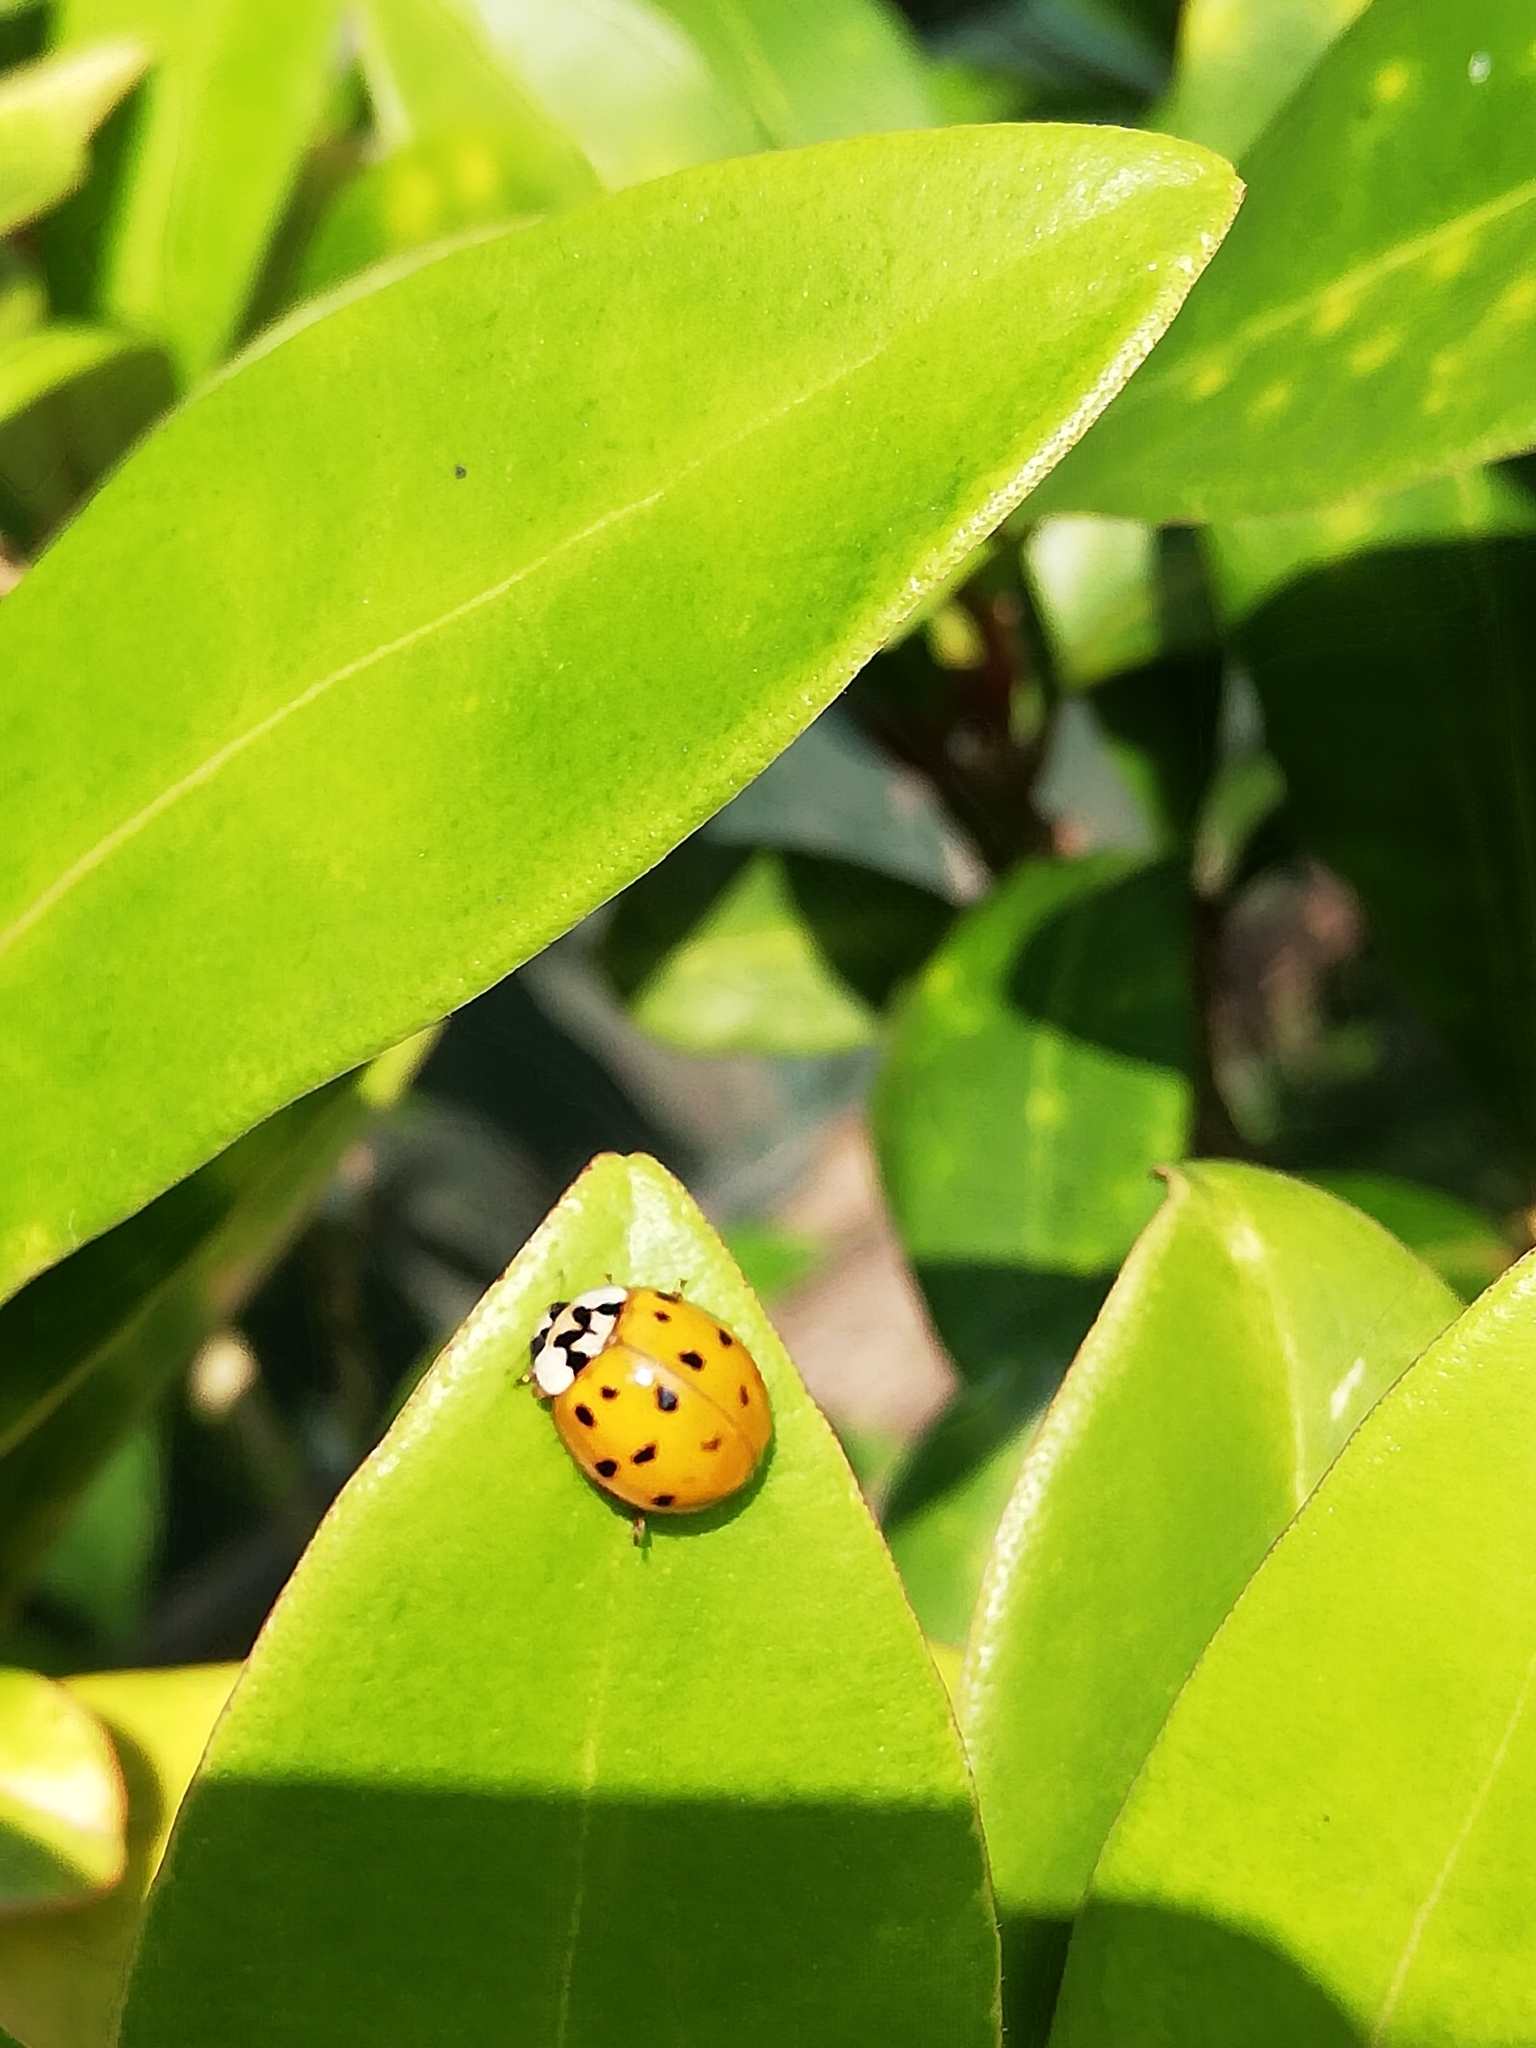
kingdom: Animalia
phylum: Arthropoda
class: Insecta
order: Coleoptera
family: Coccinellidae
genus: Harmonia
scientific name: Harmonia axyridis
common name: Harlequin ladybird
